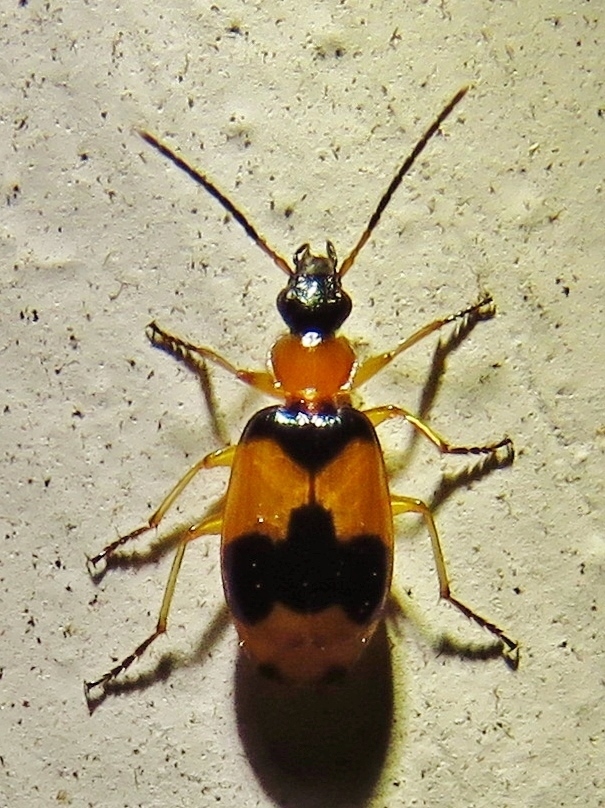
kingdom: Animalia
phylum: Arthropoda
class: Insecta
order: Coleoptera
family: Carabidae
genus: Lebia
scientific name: Lebia pulchella
